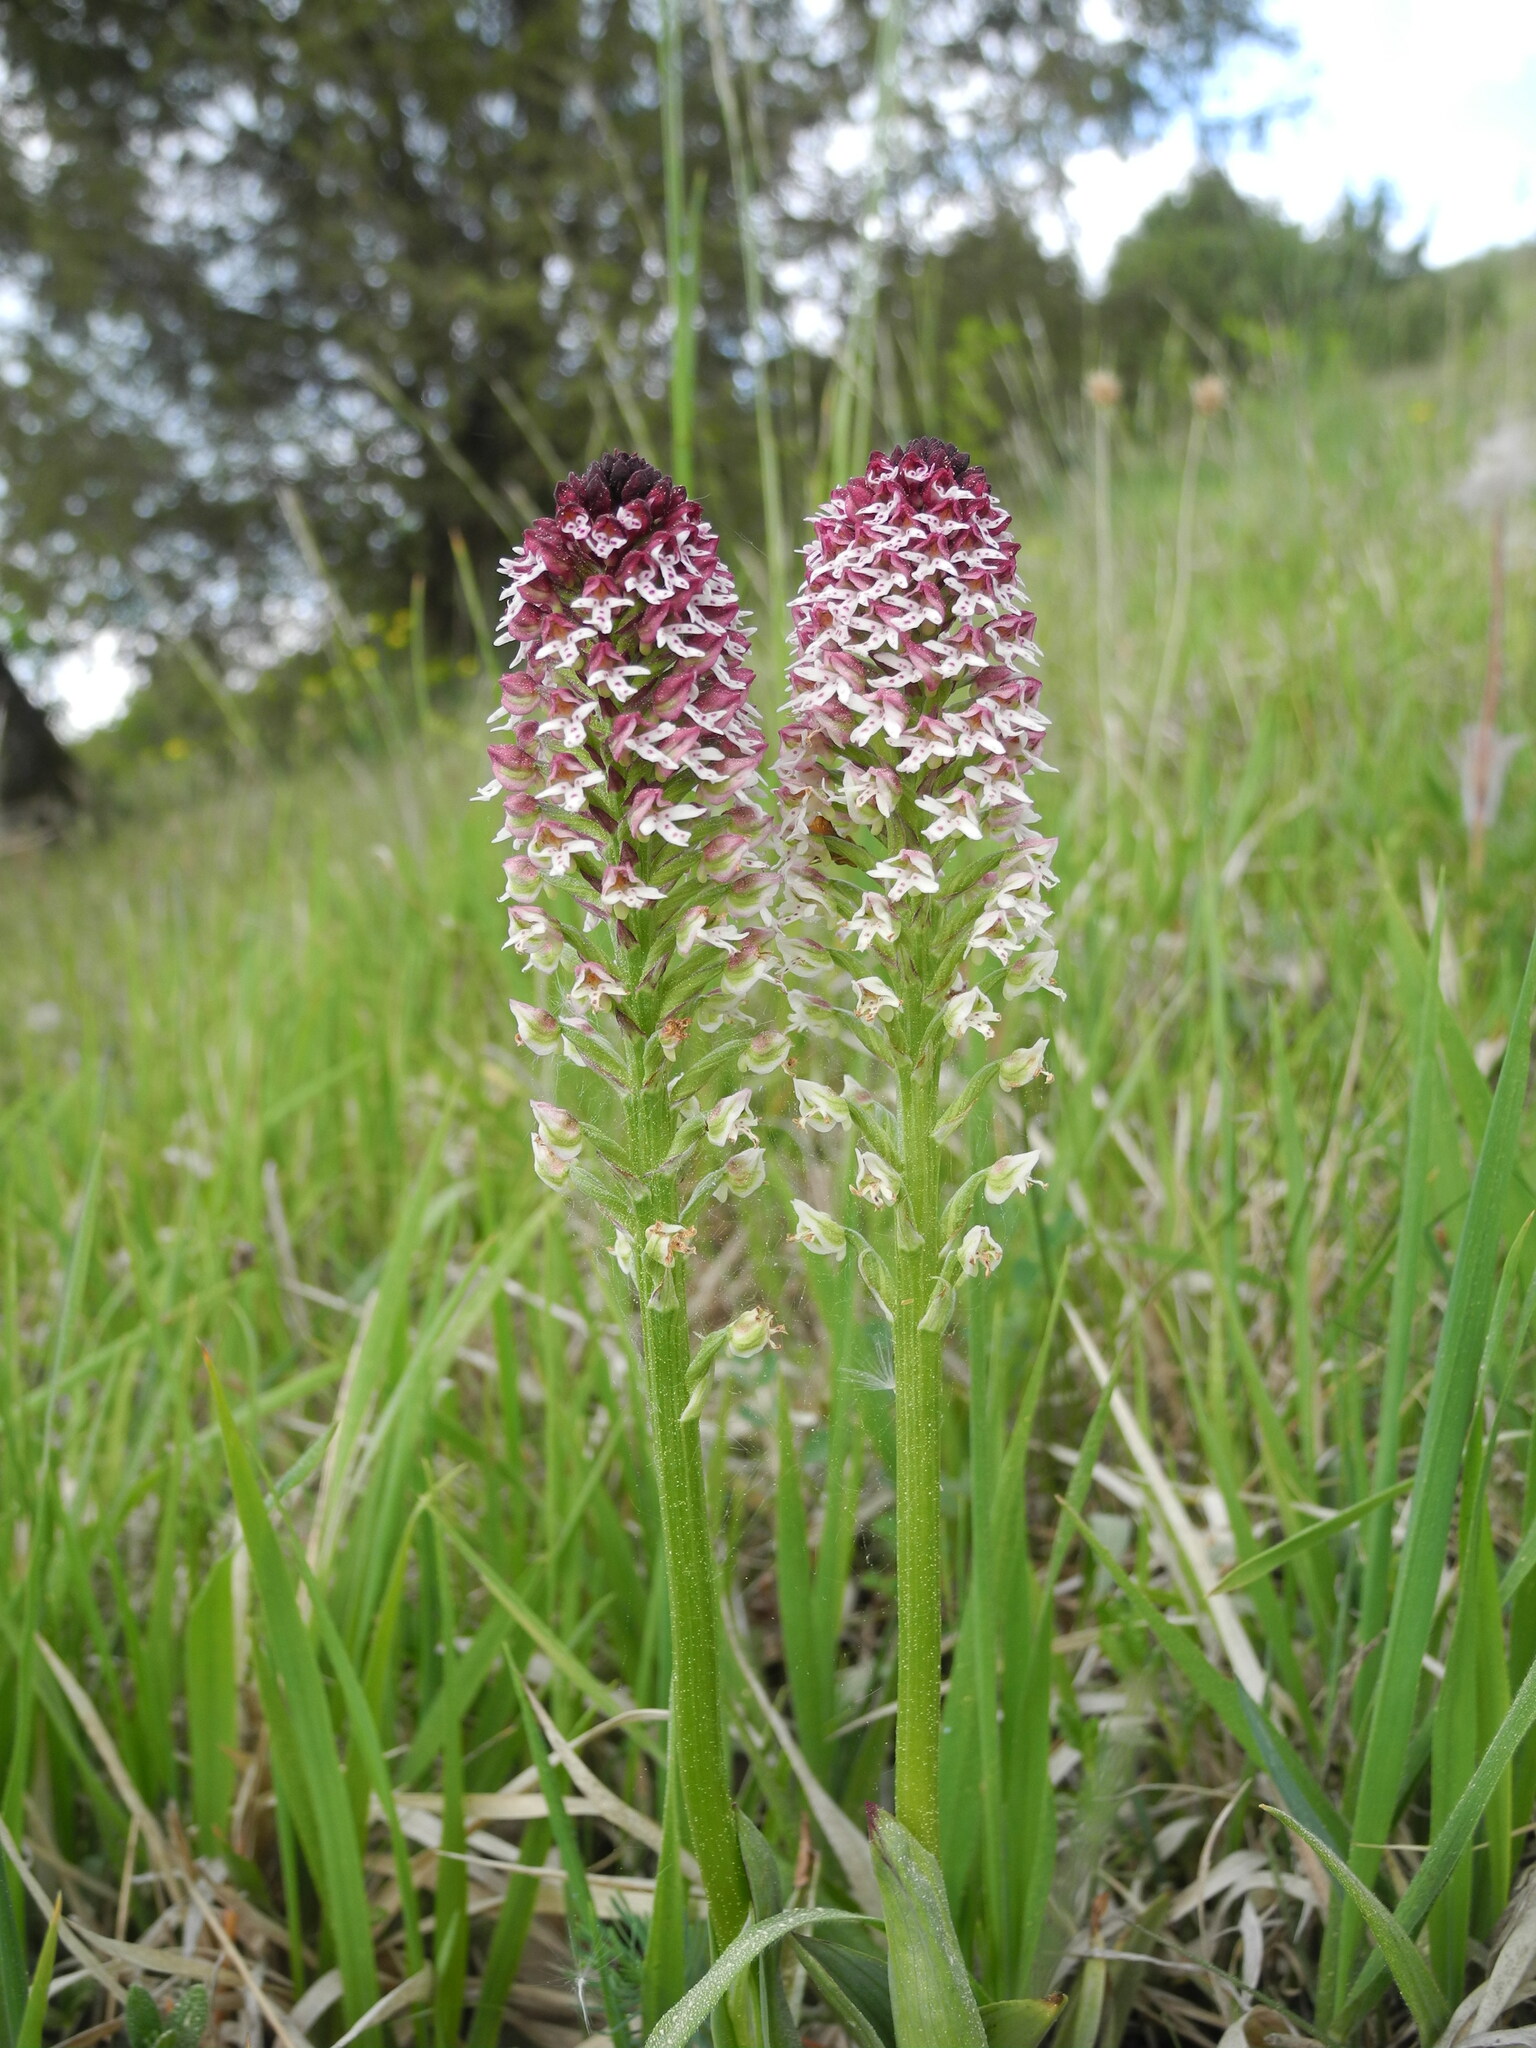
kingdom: Plantae
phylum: Tracheophyta
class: Liliopsida
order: Asparagales
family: Orchidaceae
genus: Neotinea
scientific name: Neotinea ustulata
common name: Burnt orchid
